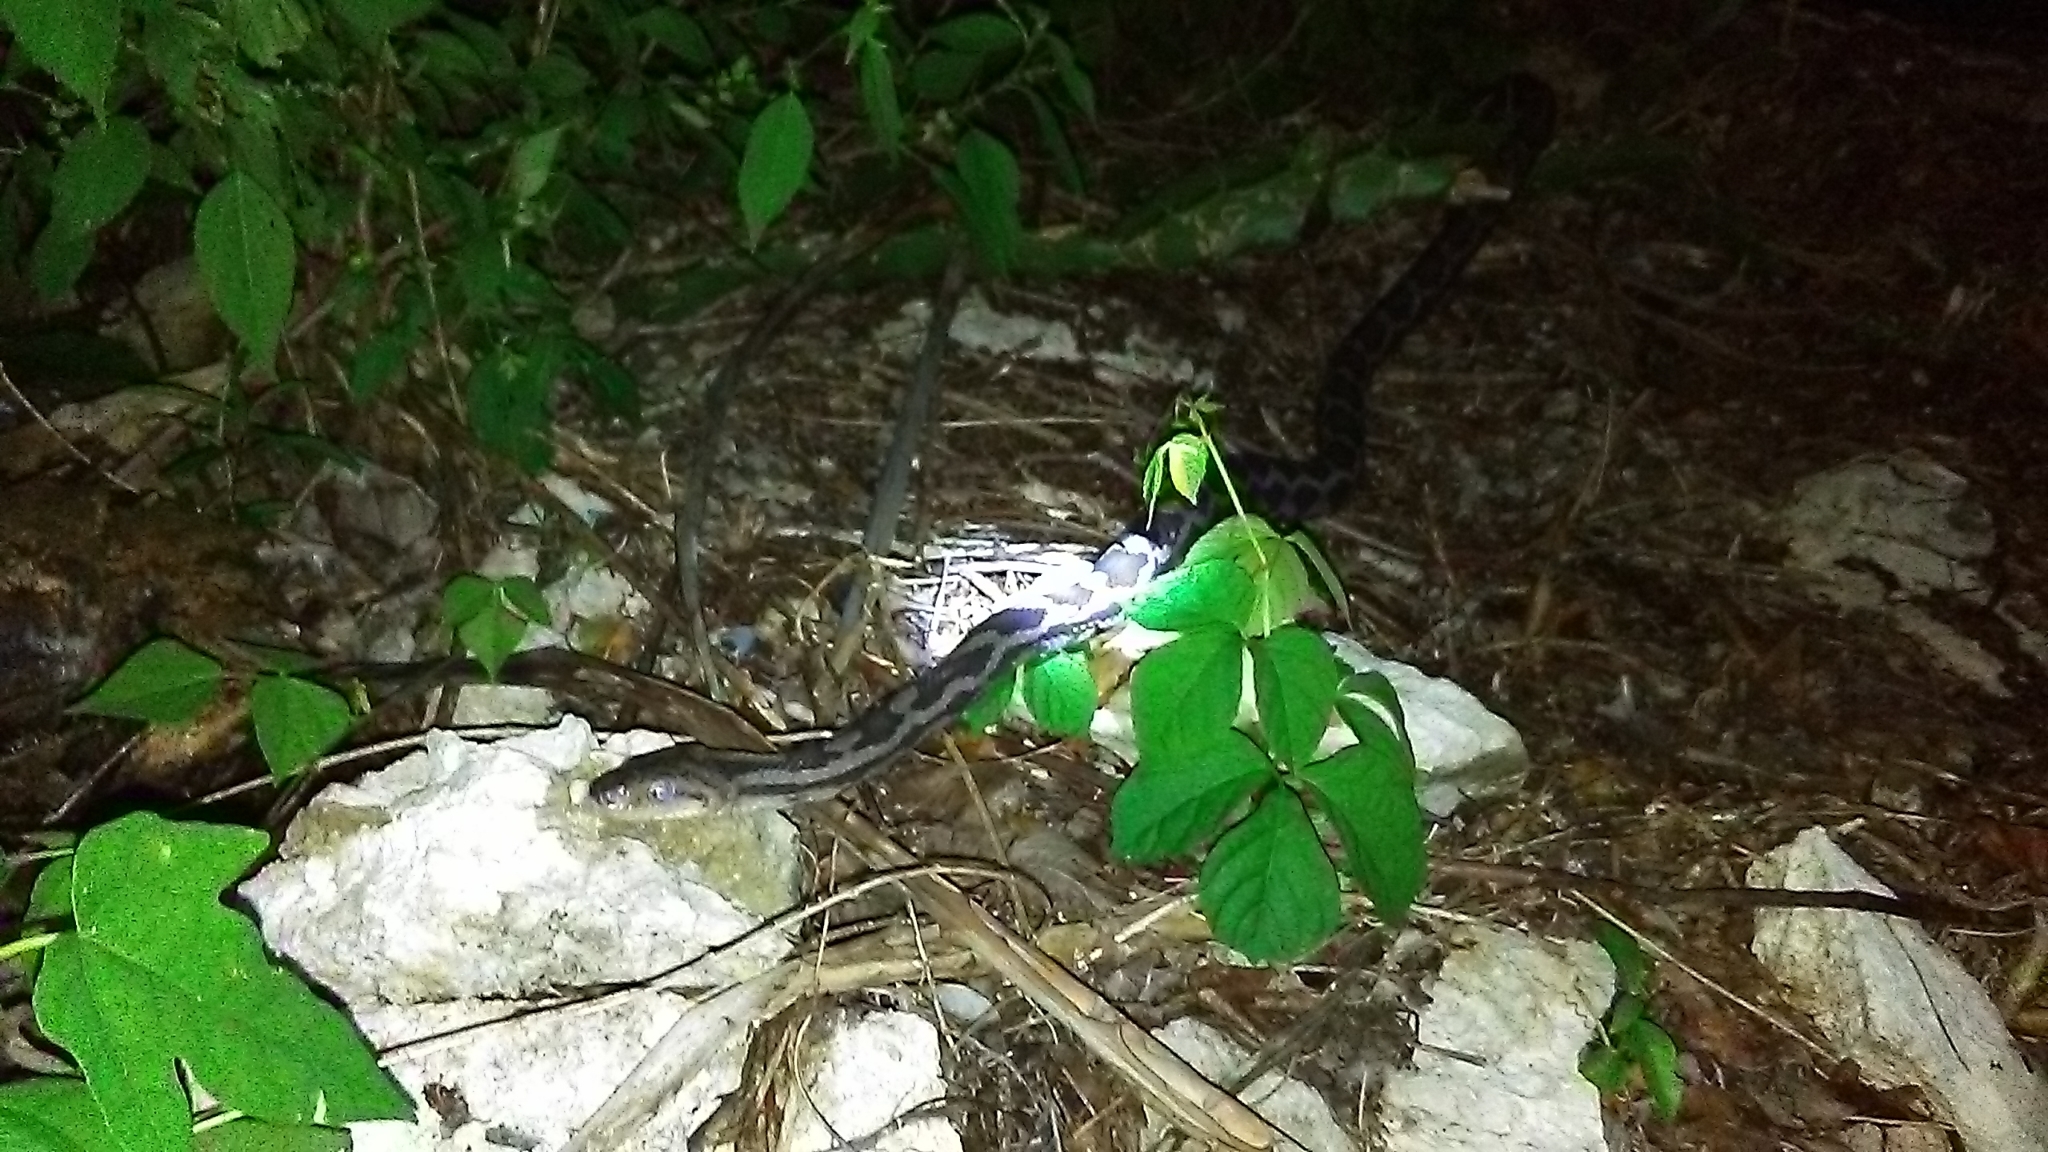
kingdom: Animalia
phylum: Chordata
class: Squamata
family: Colubridae
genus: Pseudelaphe
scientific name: Pseudelaphe phaescens
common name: Yucatan rat snake
